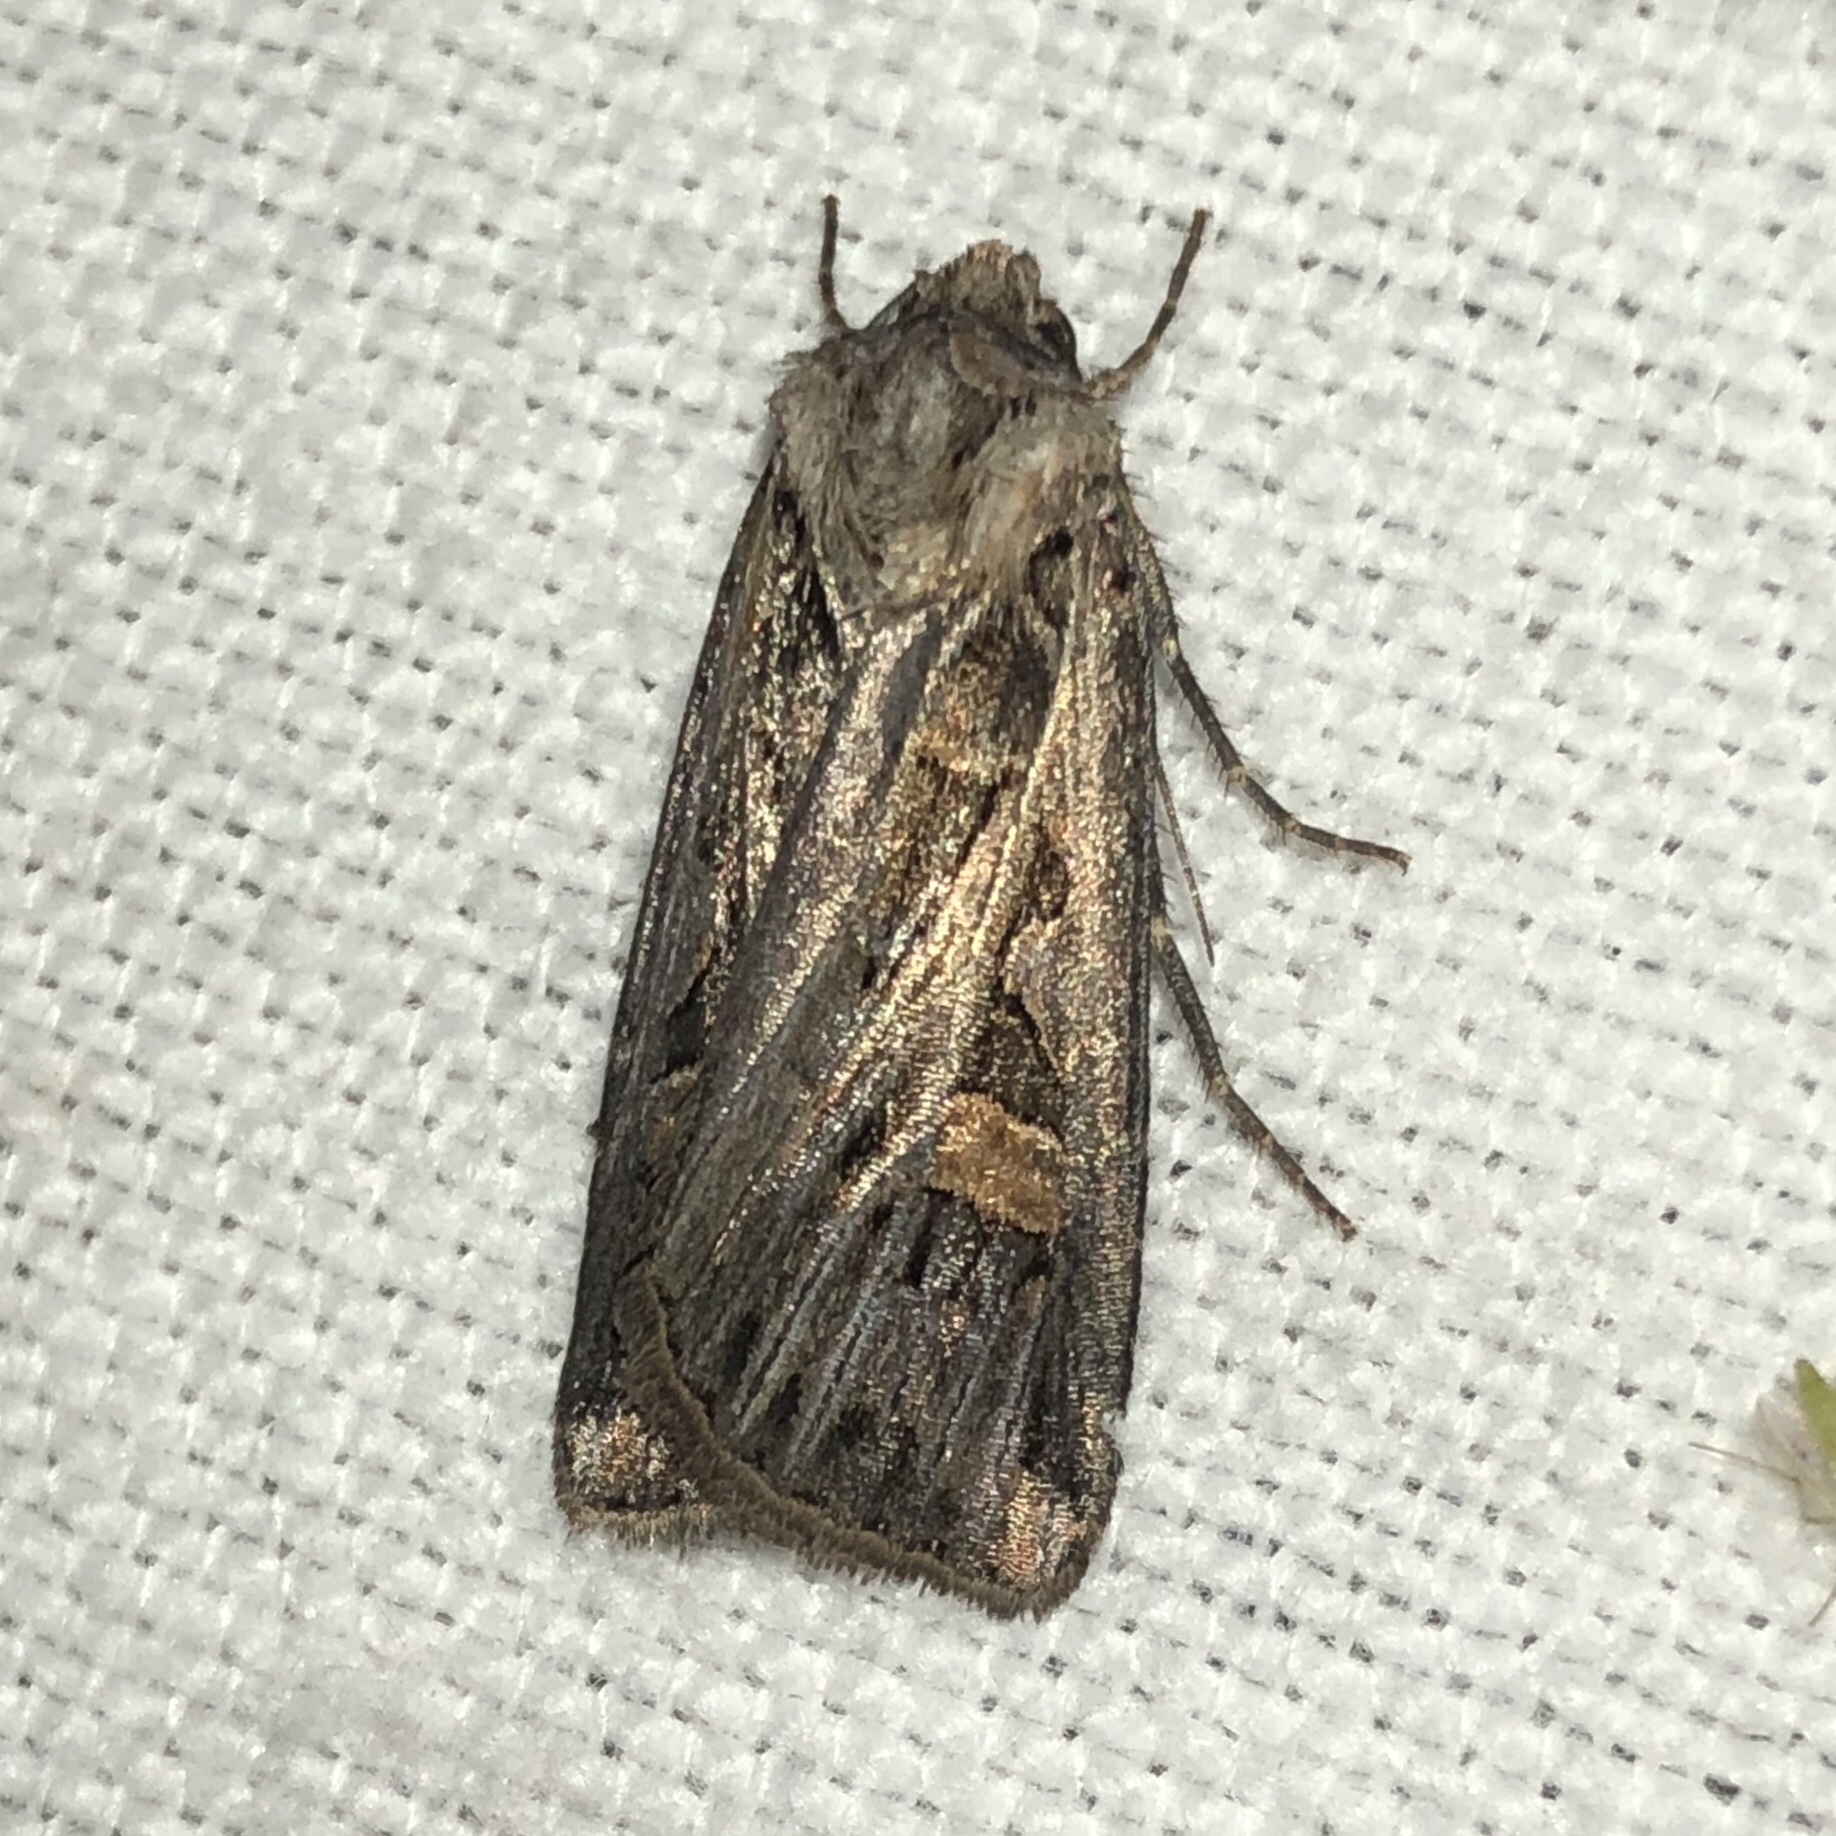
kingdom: Animalia
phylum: Arthropoda
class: Insecta
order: Lepidoptera
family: Noctuidae
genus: Feltia
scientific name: Feltia jaculifera
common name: Dingy cutworm moth
